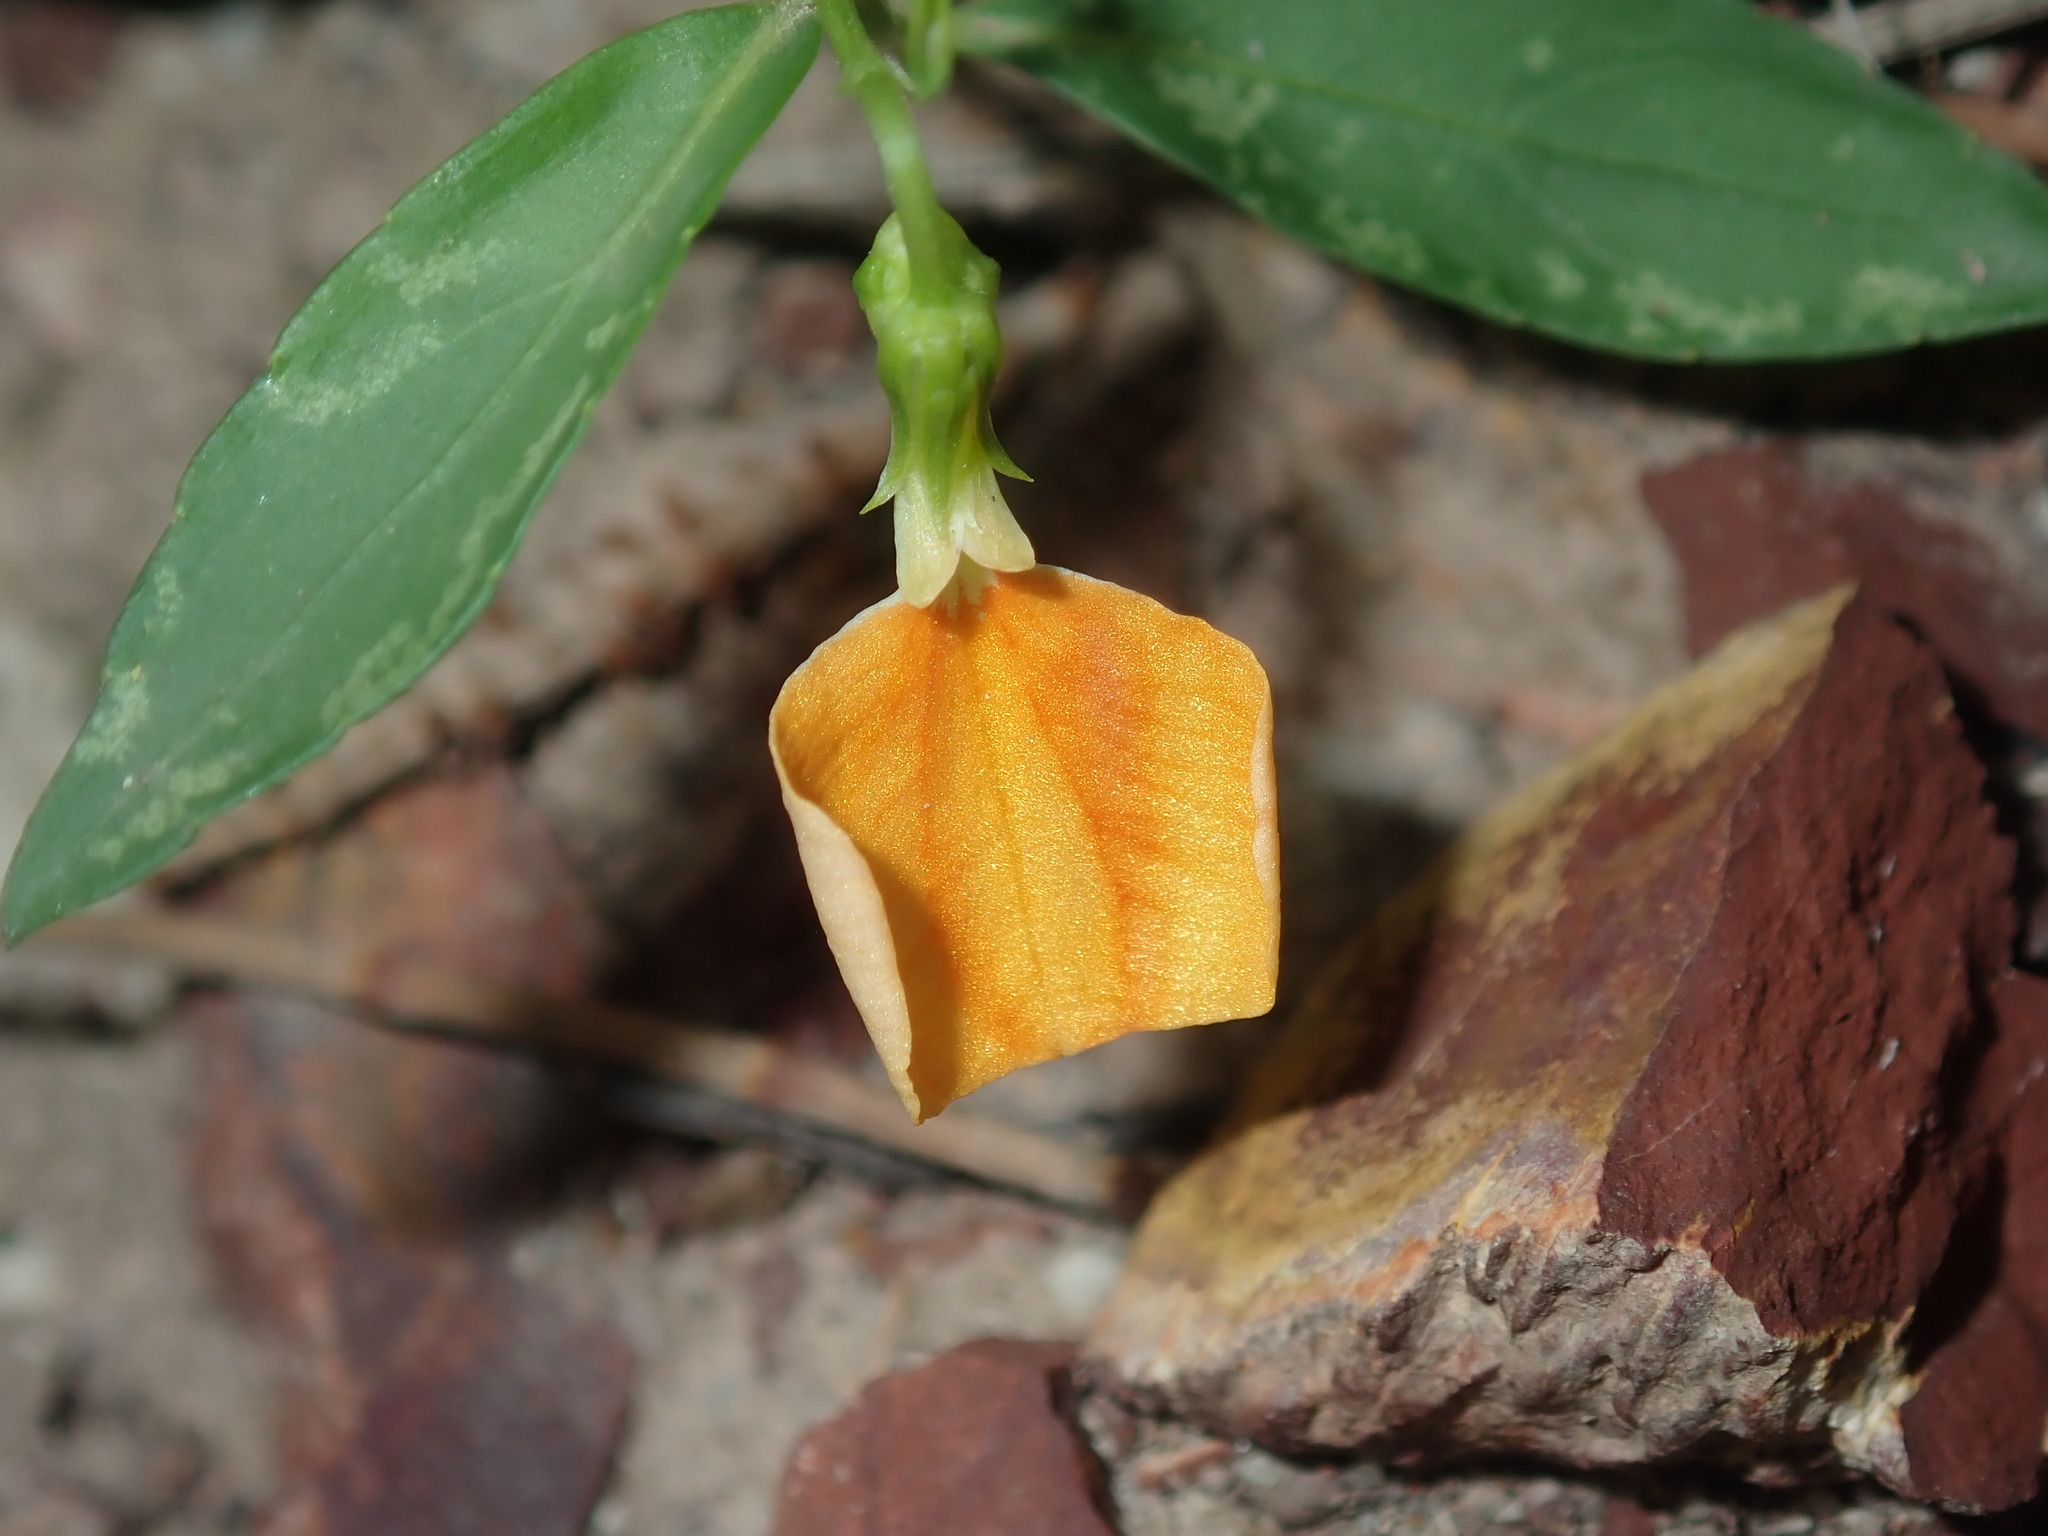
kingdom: Plantae
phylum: Tracheophyta
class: Magnoliopsida
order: Malpighiales
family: Violaceae
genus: Pigea
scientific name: Pigea stellarioides
